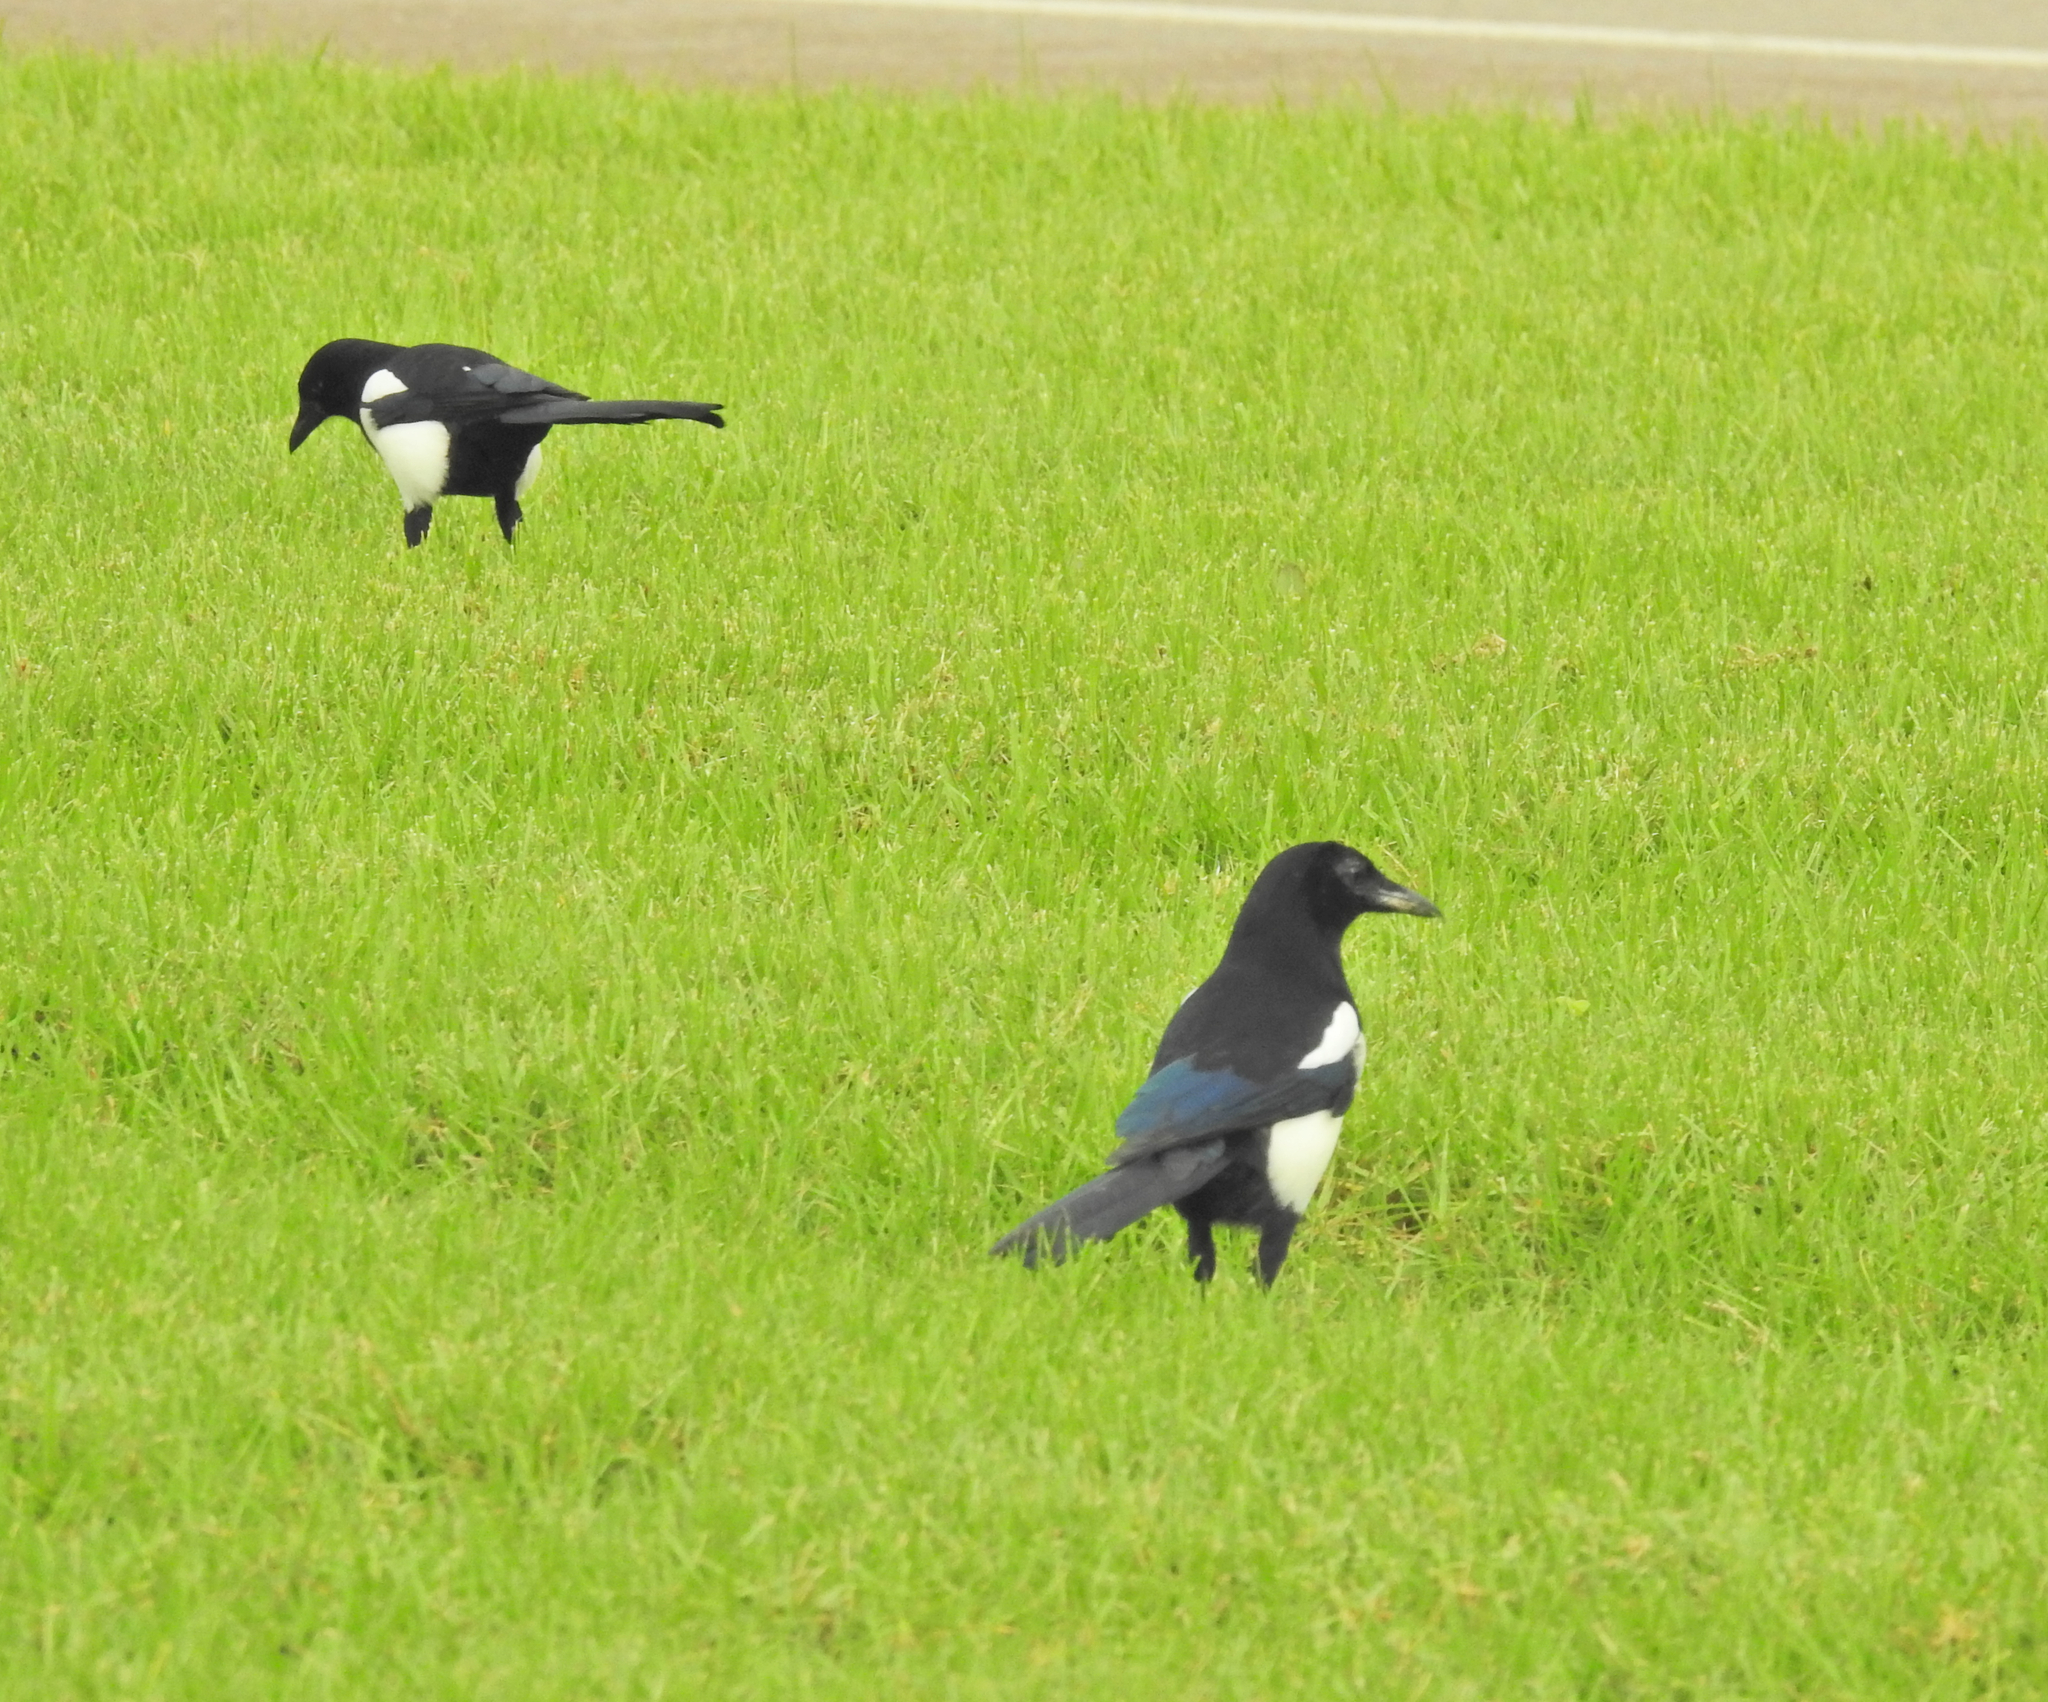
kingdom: Animalia
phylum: Chordata
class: Aves
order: Passeriformes
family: Corvidae
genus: Pica
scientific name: Pica pica
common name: Eurasian magpie
